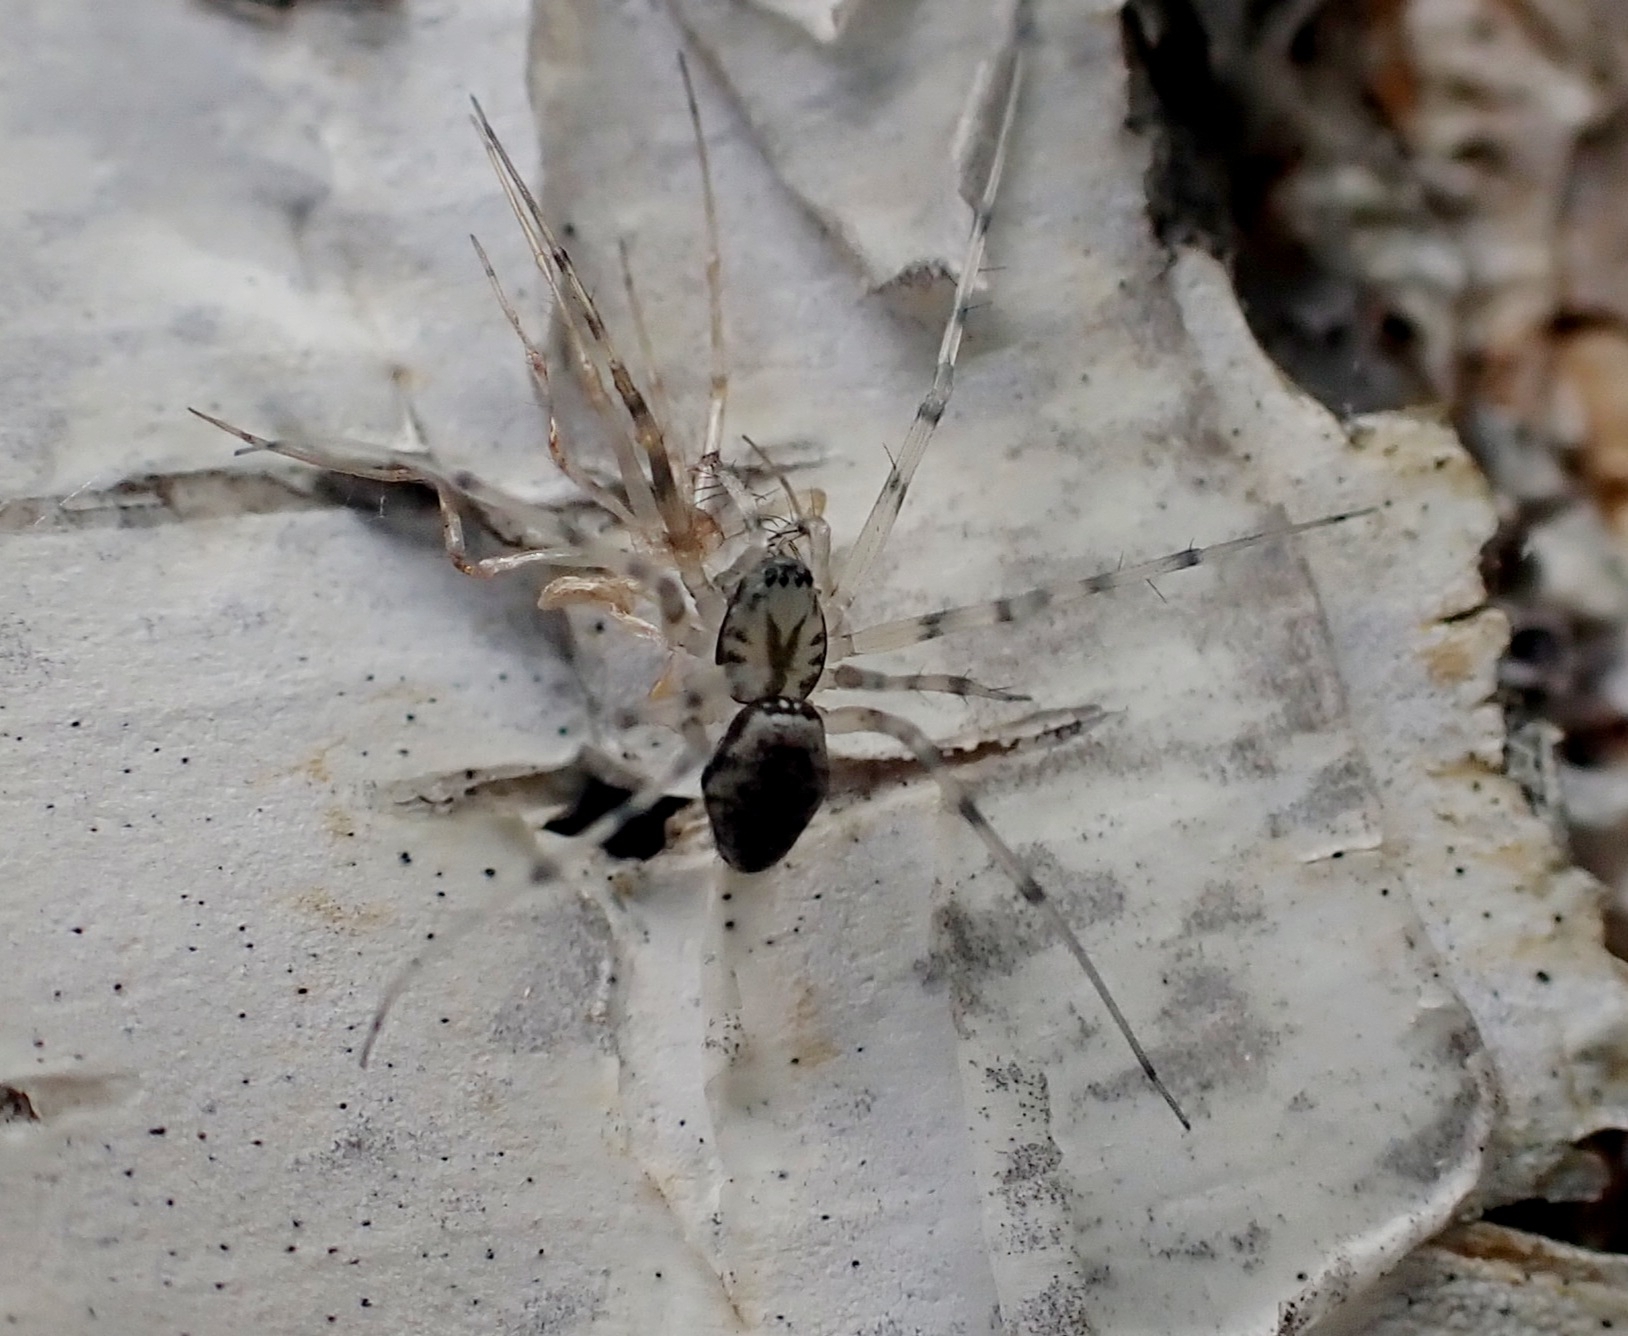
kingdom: Animalia
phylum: Arthropoda
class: Arachnida
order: Araneae
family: Linyphiidae
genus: Drapetisca
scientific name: Drapetisca socialis
